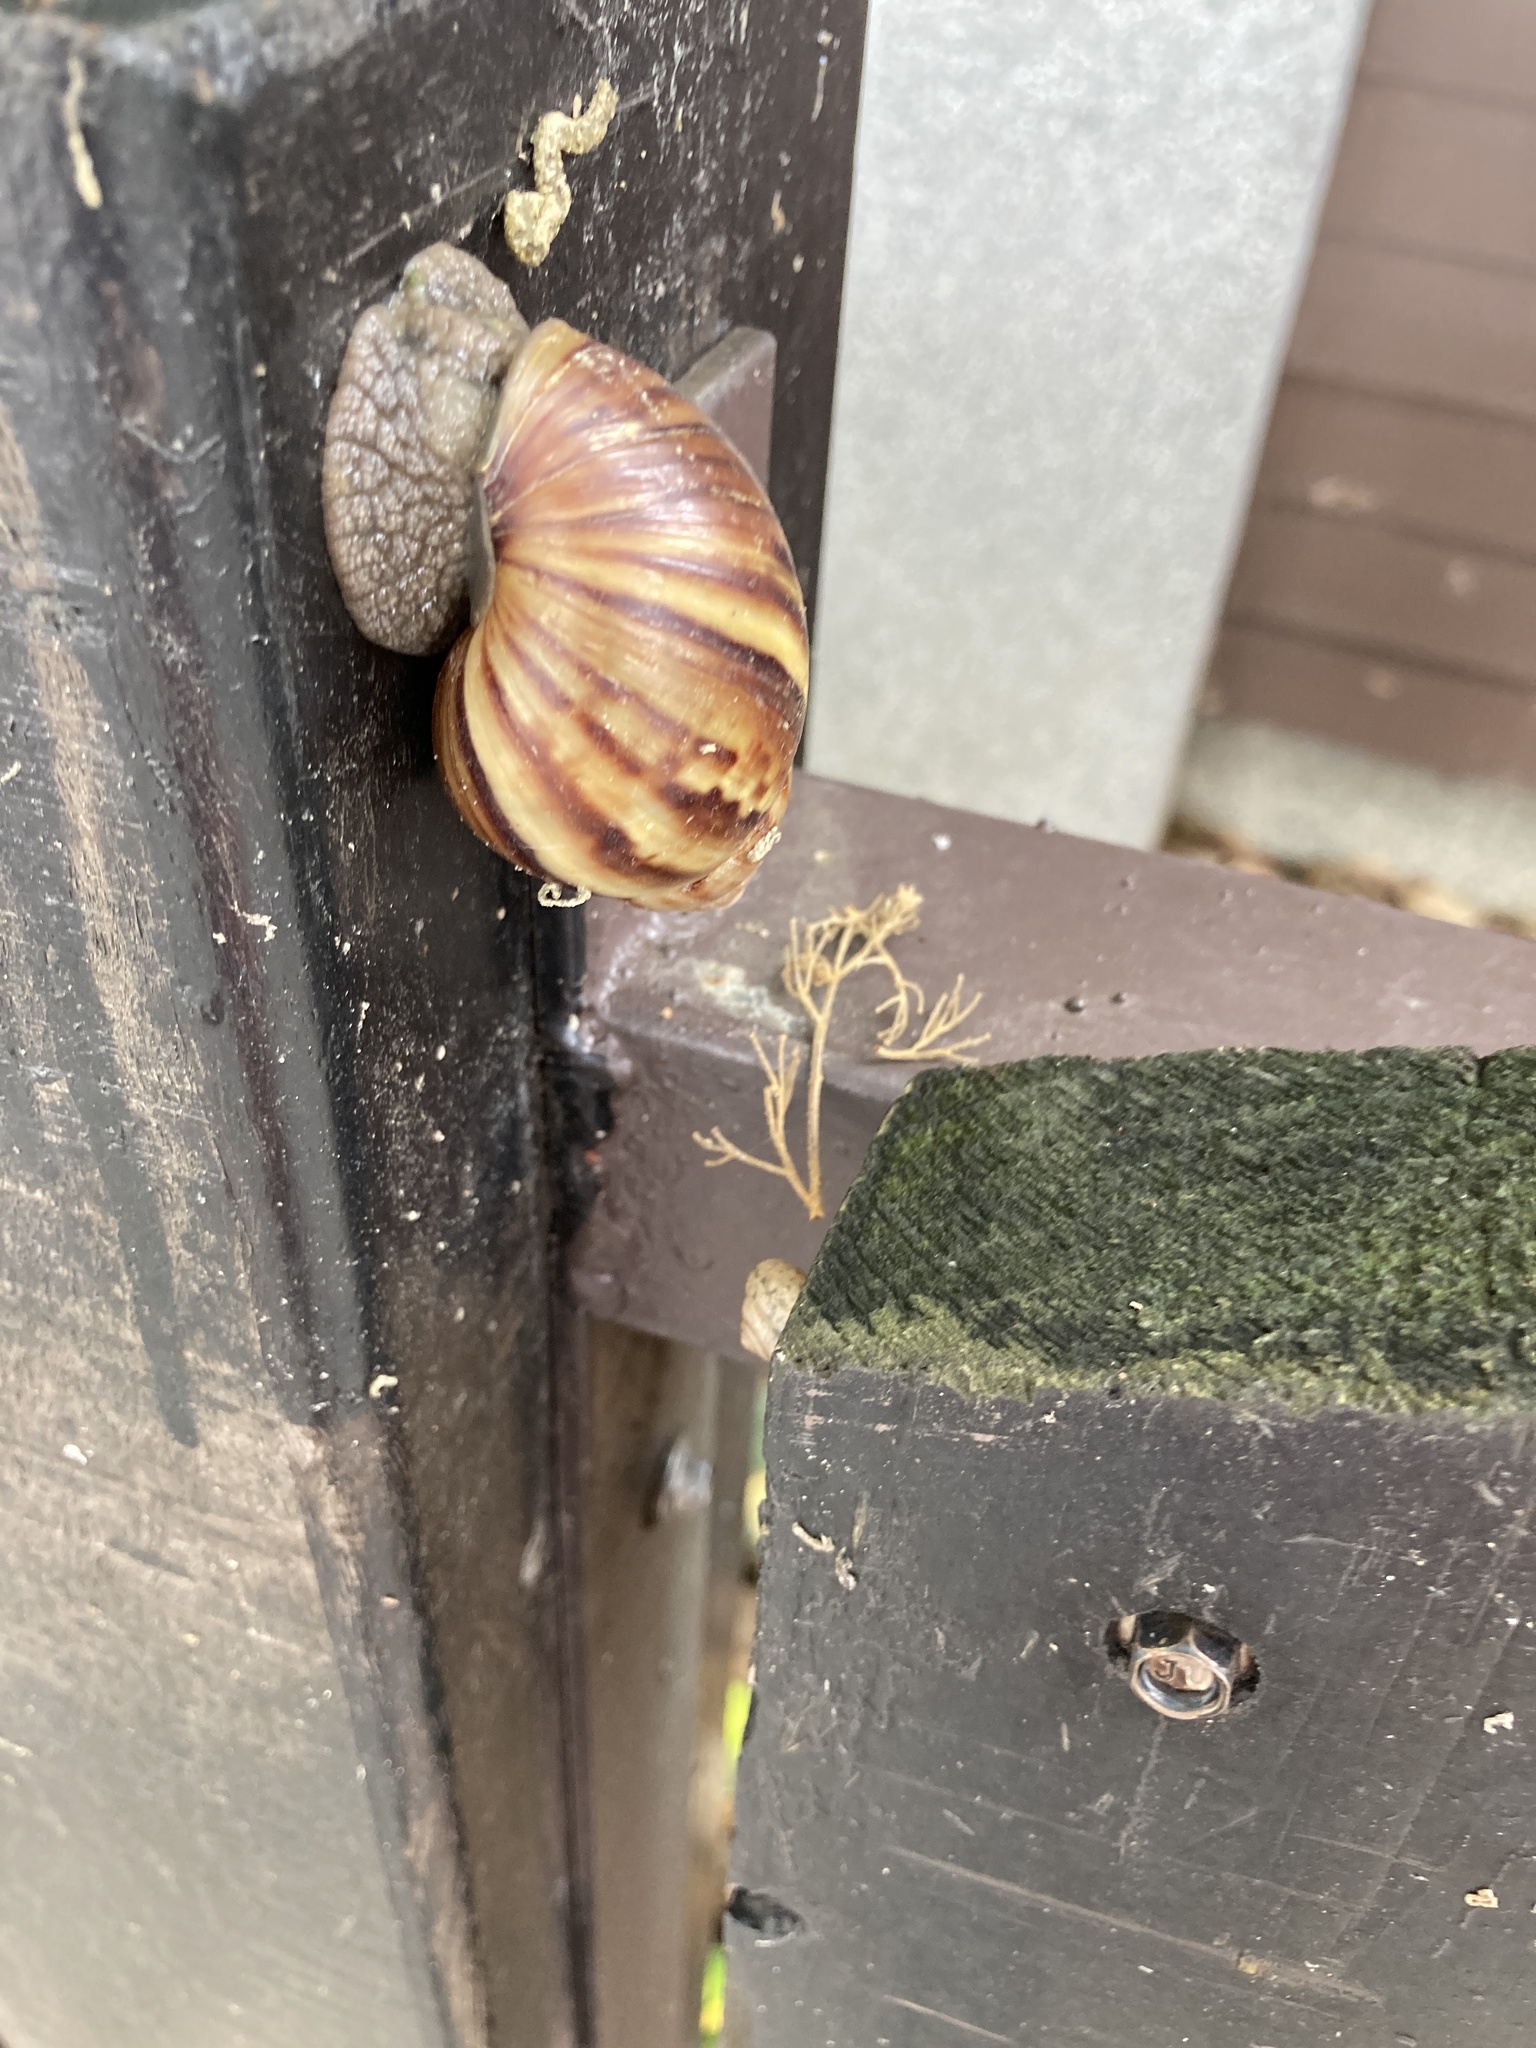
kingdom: Animalia
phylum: Mollusca
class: Gastropoda
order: Stylommatophora
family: Achatinidae
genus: Lissachatina
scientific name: Lissachatina fulica
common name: Giant african snail
